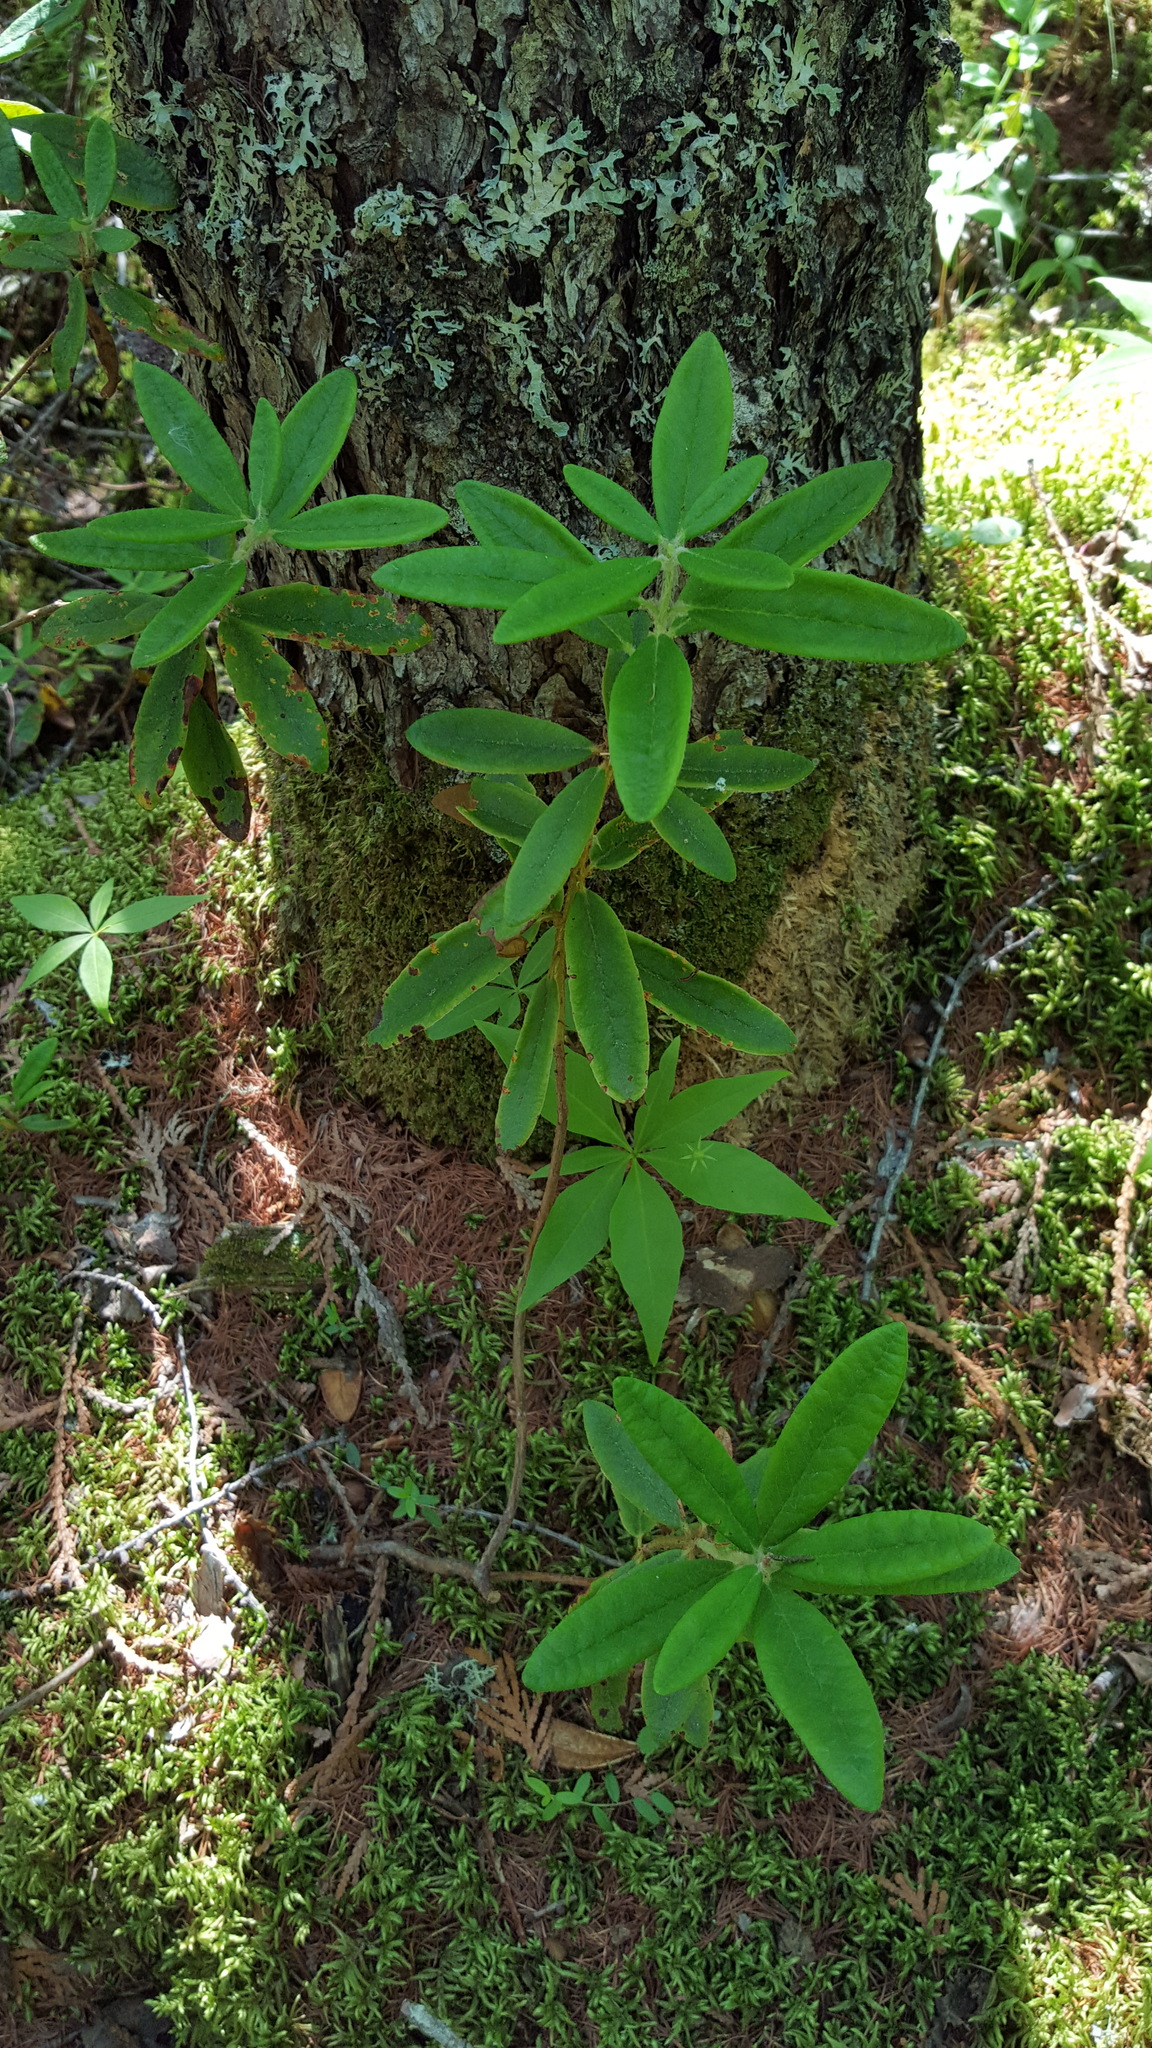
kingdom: Plantae
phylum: Tracheophyta
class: Magnoliopsida
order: Ericales
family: Ericaceae
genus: Rhododendron
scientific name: Rhododendron groenlandicum
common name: Bog labrador tea
